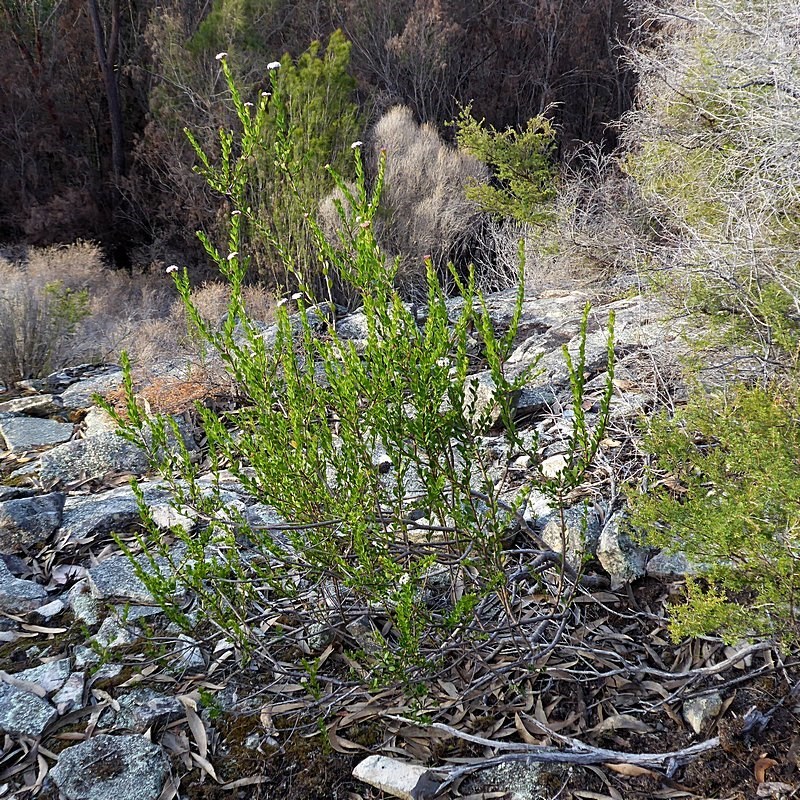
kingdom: Plantae
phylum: Tracheophyta
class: Magnoliopsida
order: Apiales
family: Apiaceae
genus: Platysace
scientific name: Platysace lanceolata
